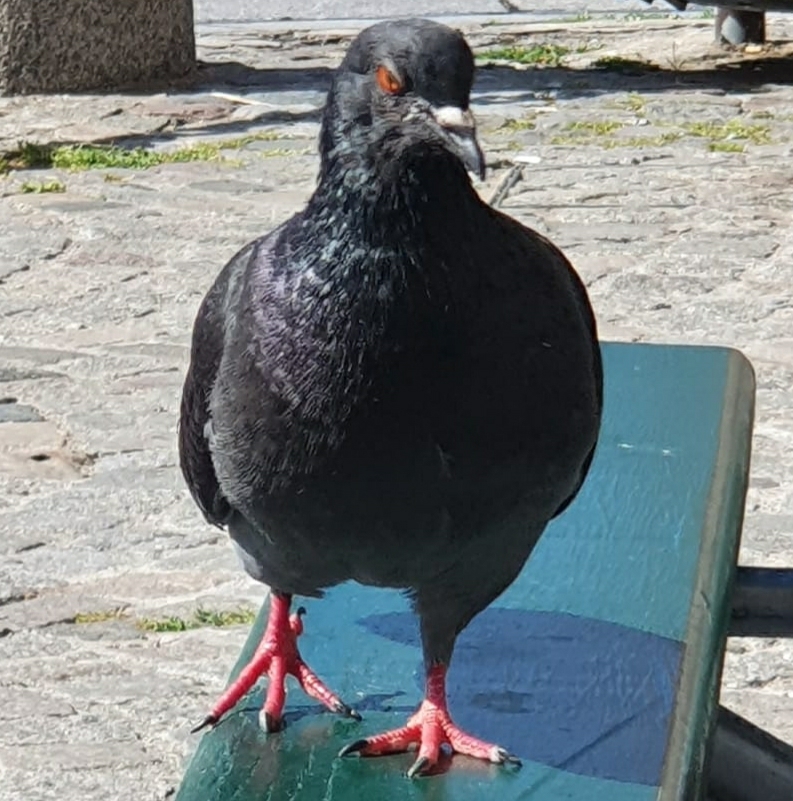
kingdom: Animalia
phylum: Chordata
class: Aves
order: Columbiformes
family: Columbidae
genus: Columba
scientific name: Columba livia
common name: Rock pigeon
